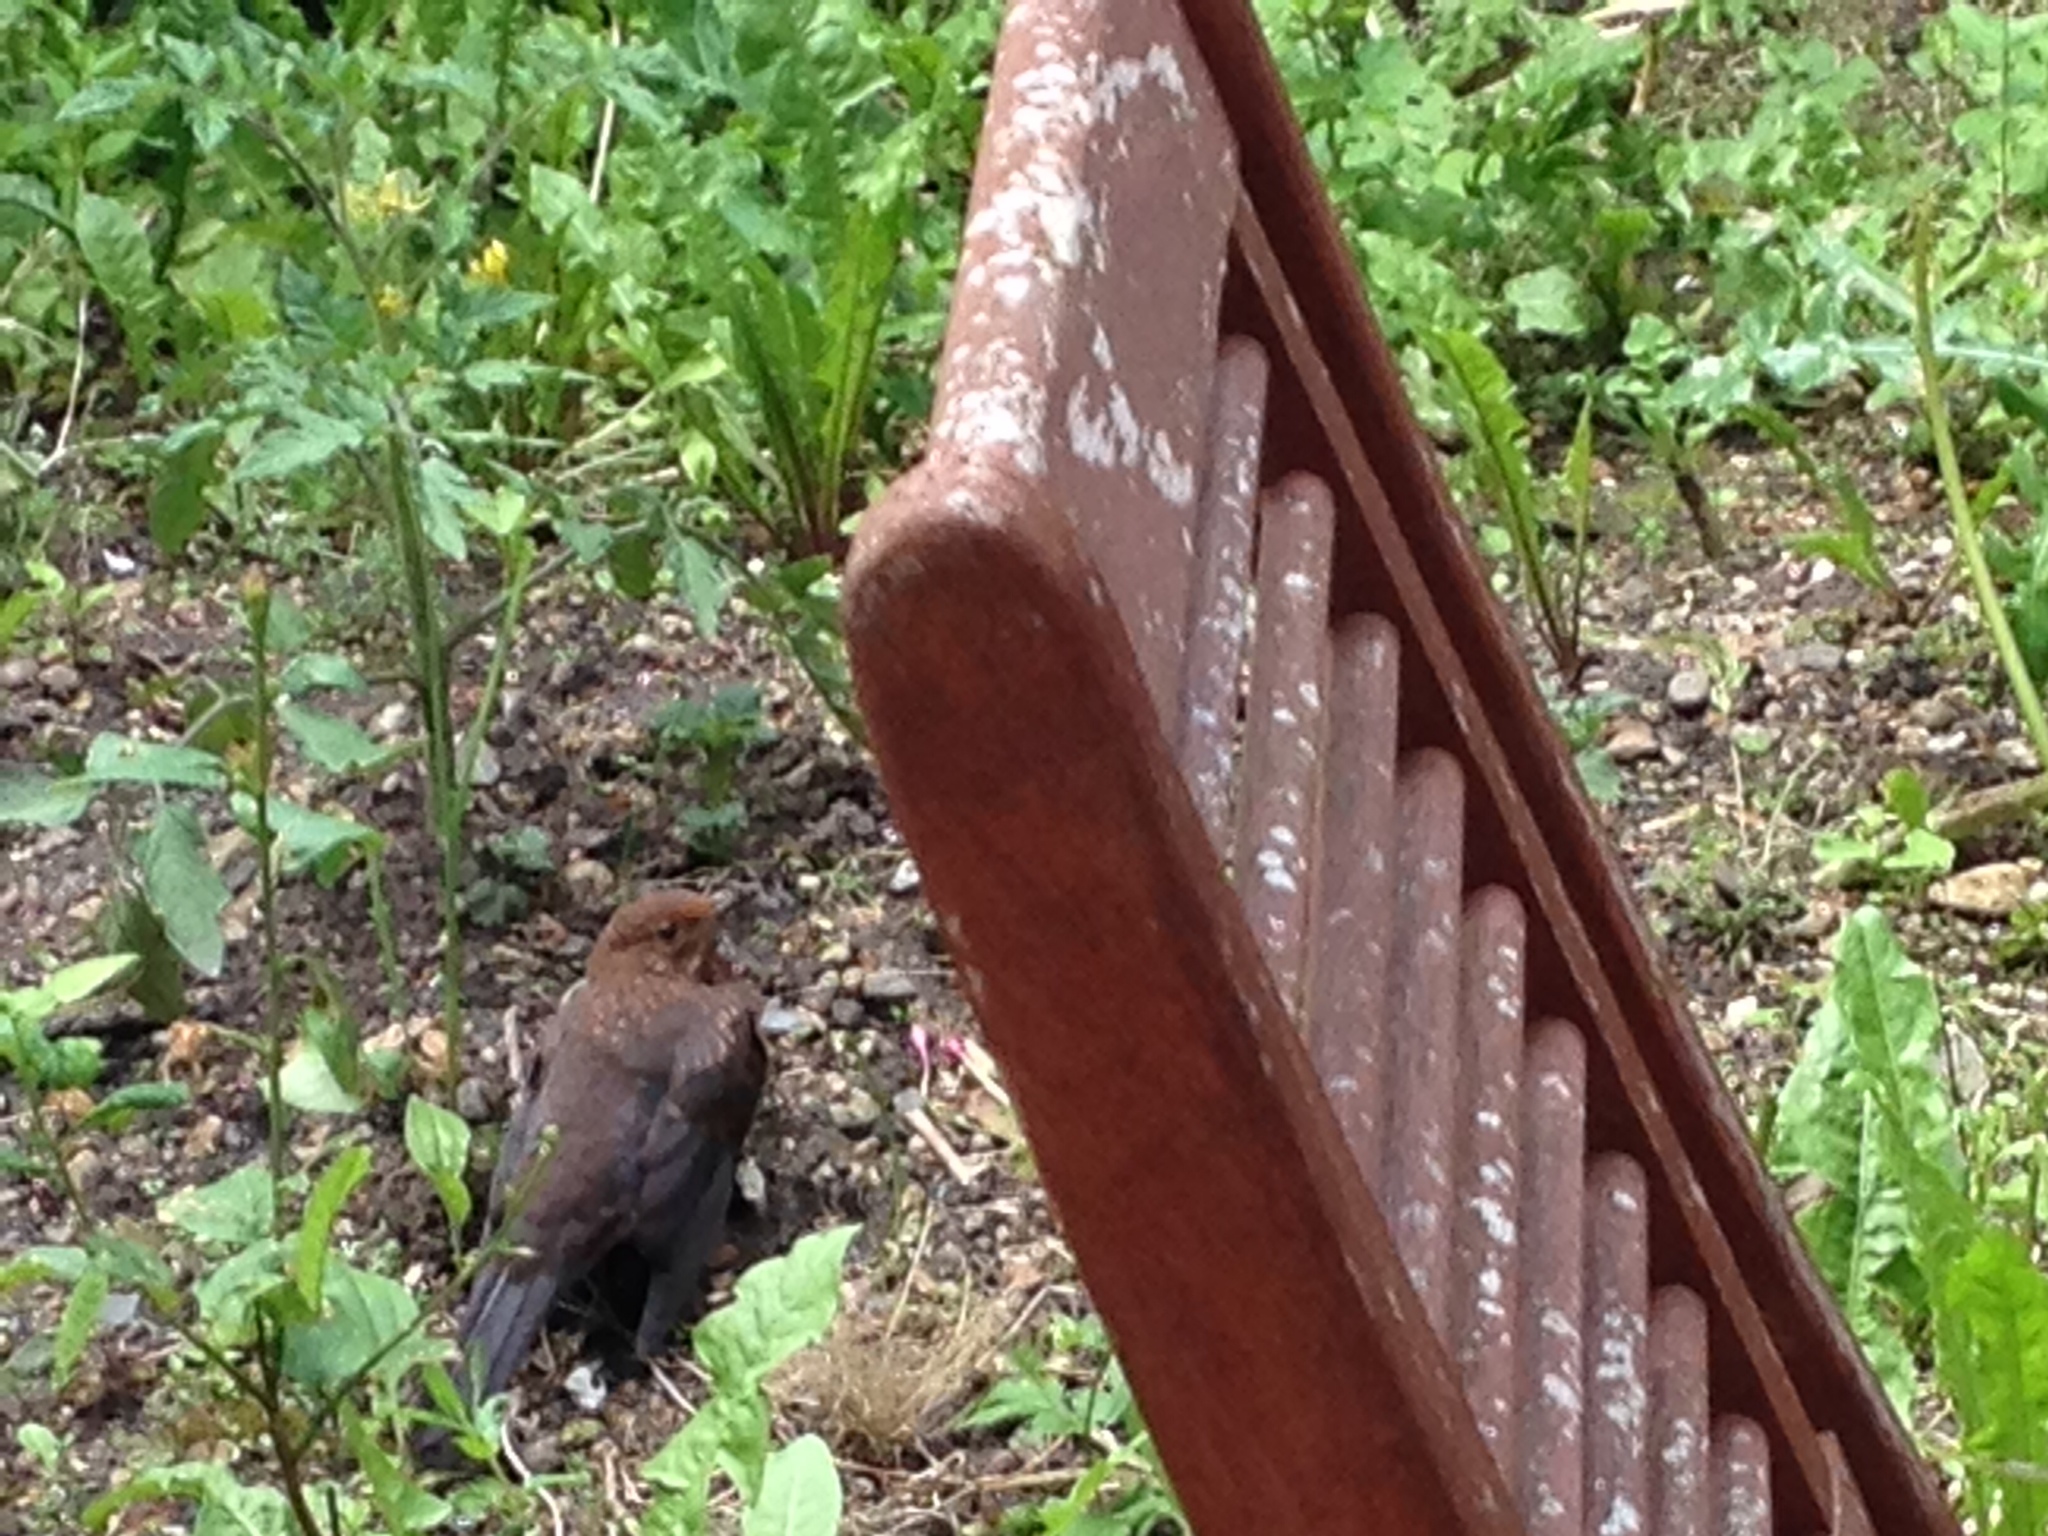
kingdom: Animalia
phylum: Chordata
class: Aves
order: Passeriformes
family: Turdidae
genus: Turdus
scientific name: Turdus merula
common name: Common blackbird
